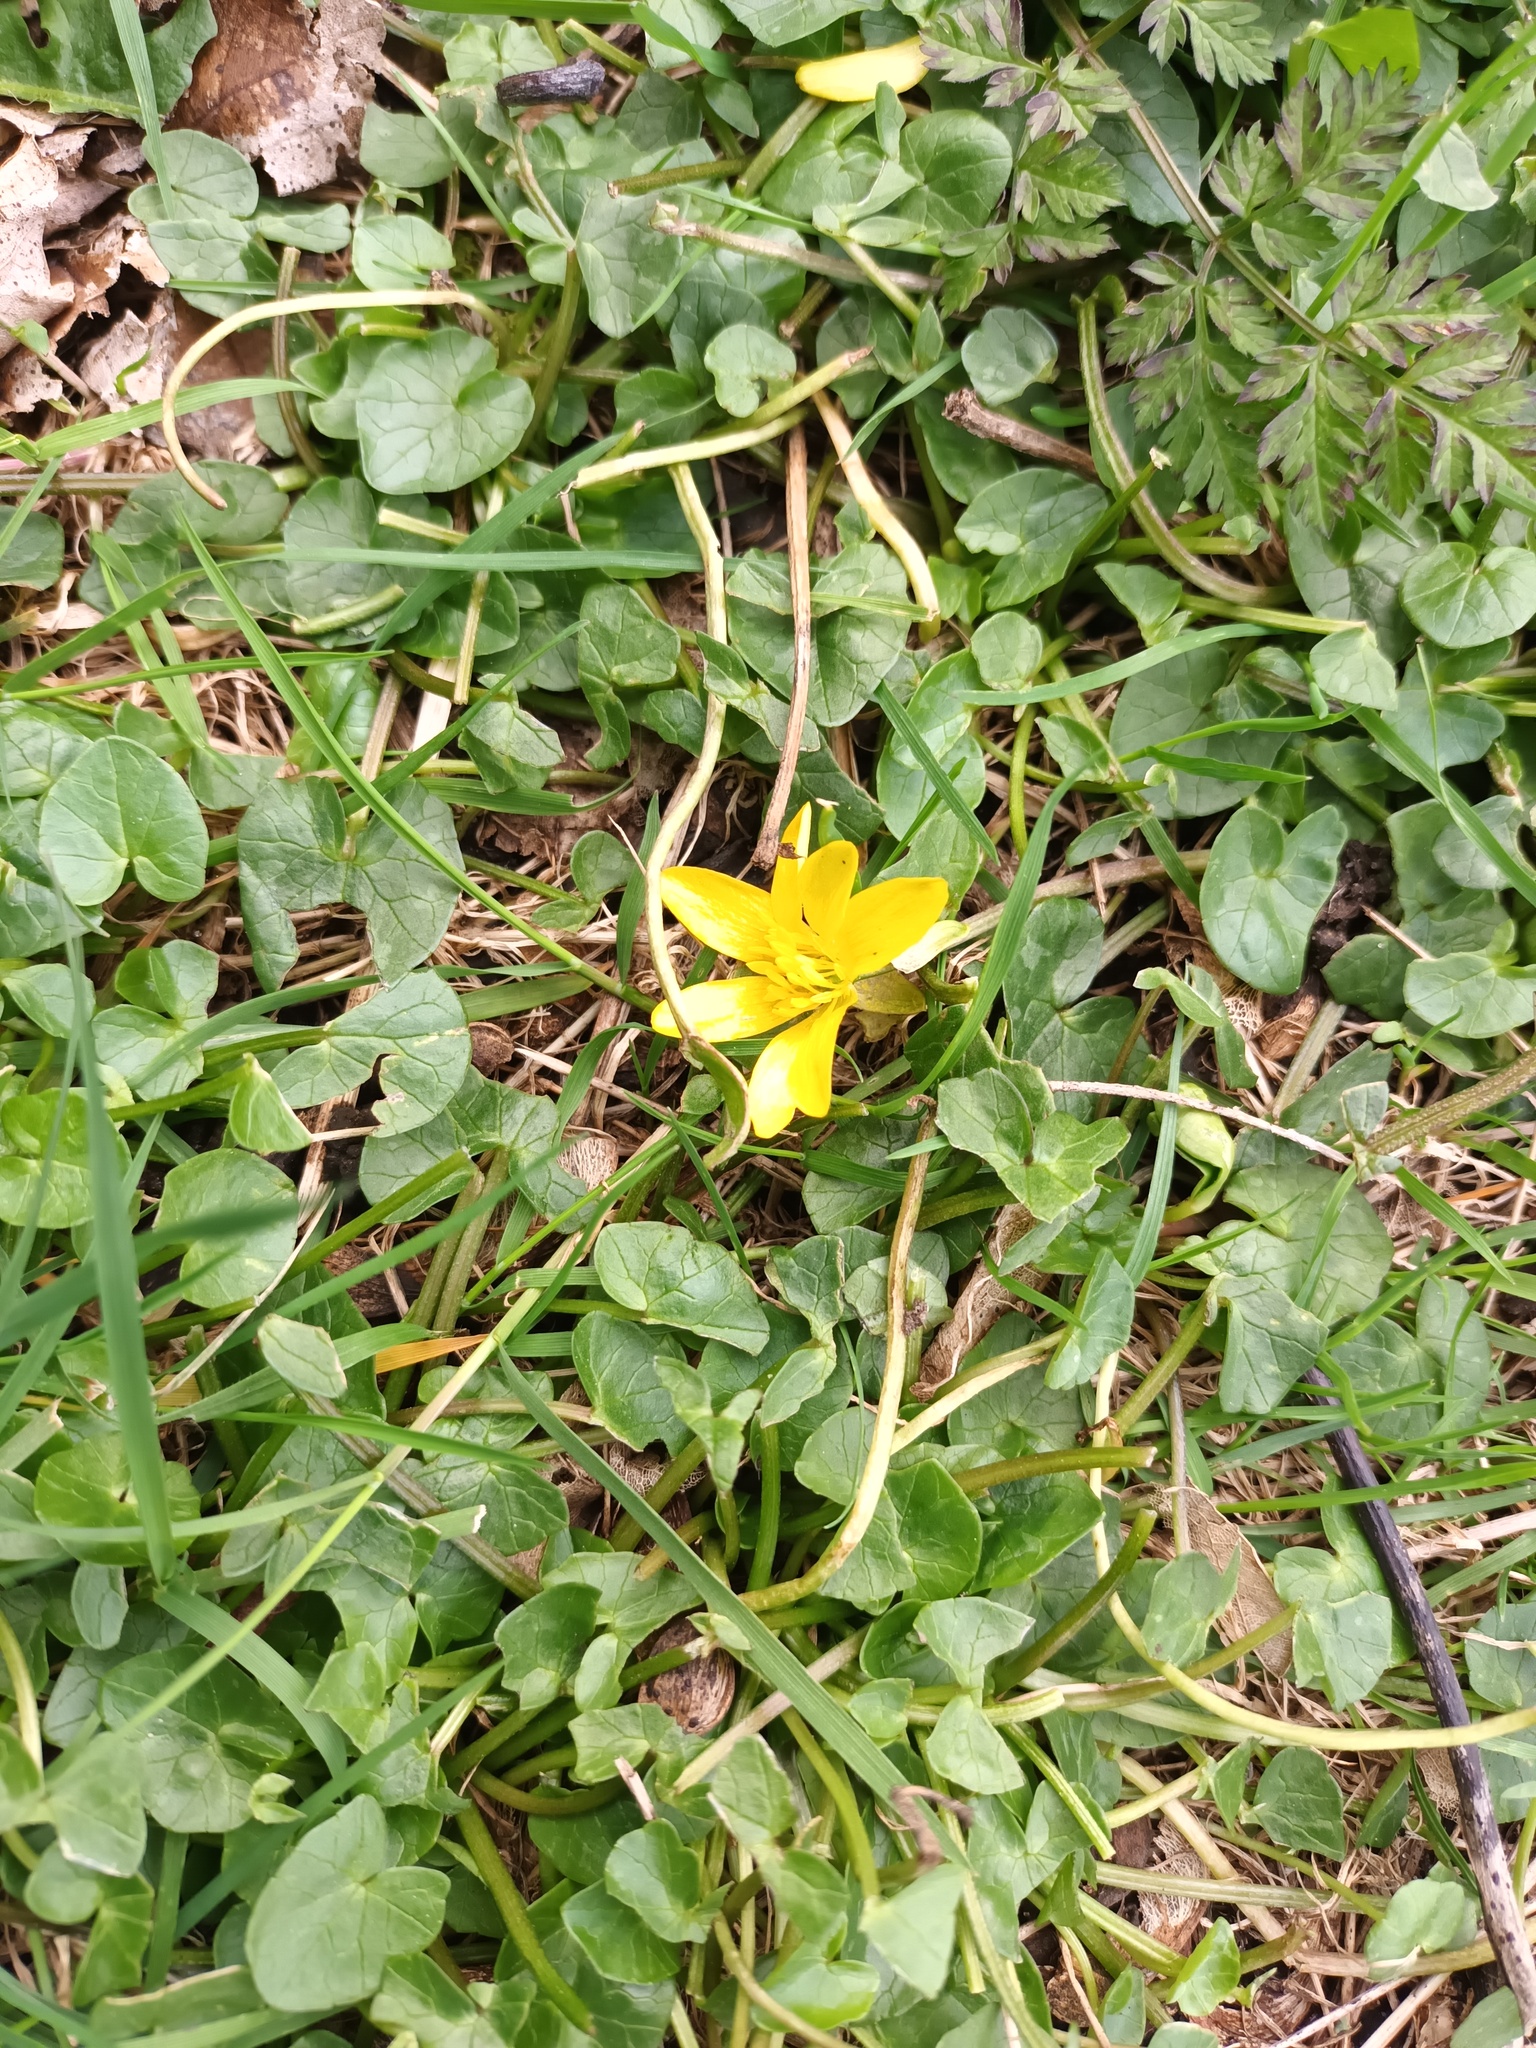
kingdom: Plantae
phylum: Tracheophyta
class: Magnoliopsida
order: Ranunculales
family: Ranunculaceae
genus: Ficaria
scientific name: Ficaria verna
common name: Lesser celandine
